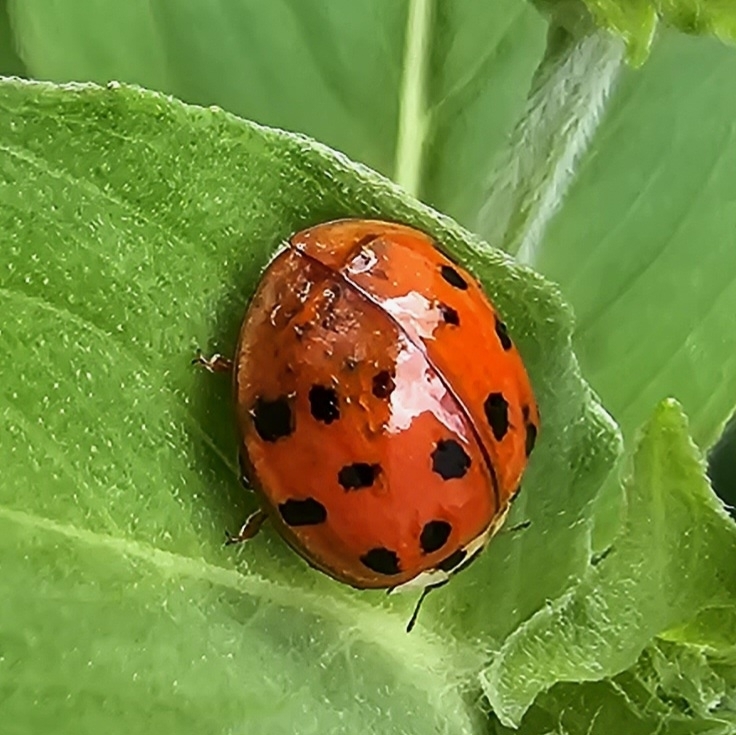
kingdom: Animalia
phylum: Arthropoda
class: Insecta
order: Coleoptera
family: Coccinellidae
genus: Harmonia
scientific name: Harmonia axyridis
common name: Harlequin ladybird
